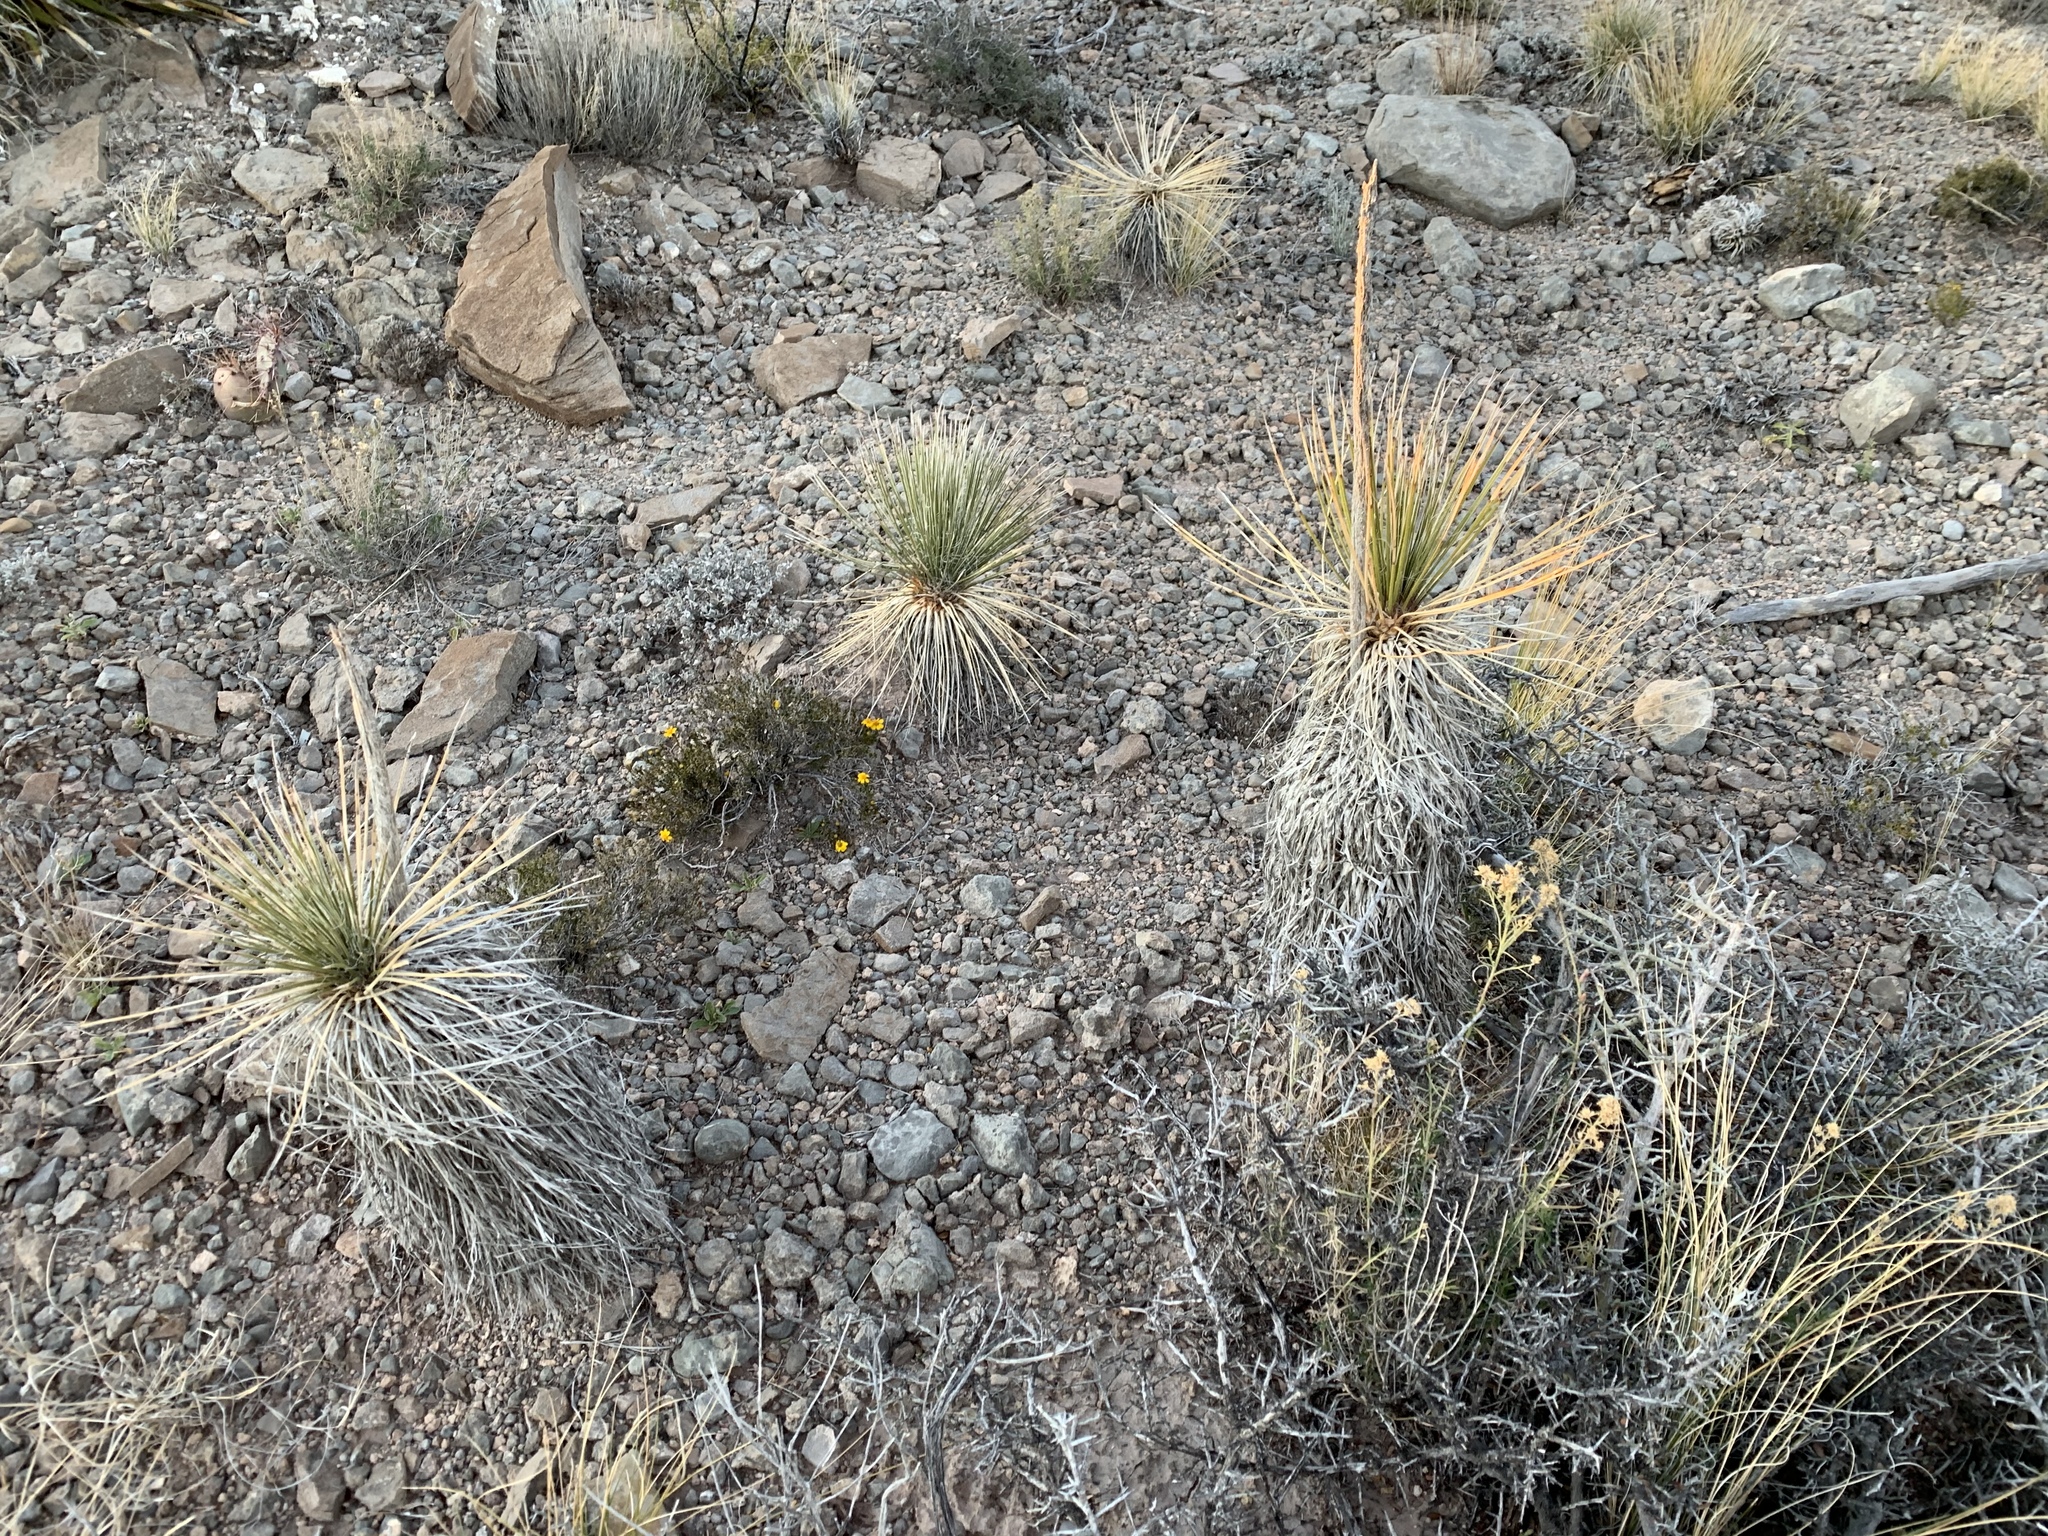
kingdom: Plantae
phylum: Tracheophyta
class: Liliopsida
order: Asparagales
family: Asparagaceae
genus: Yucca
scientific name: Yucca elata
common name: Palmella
